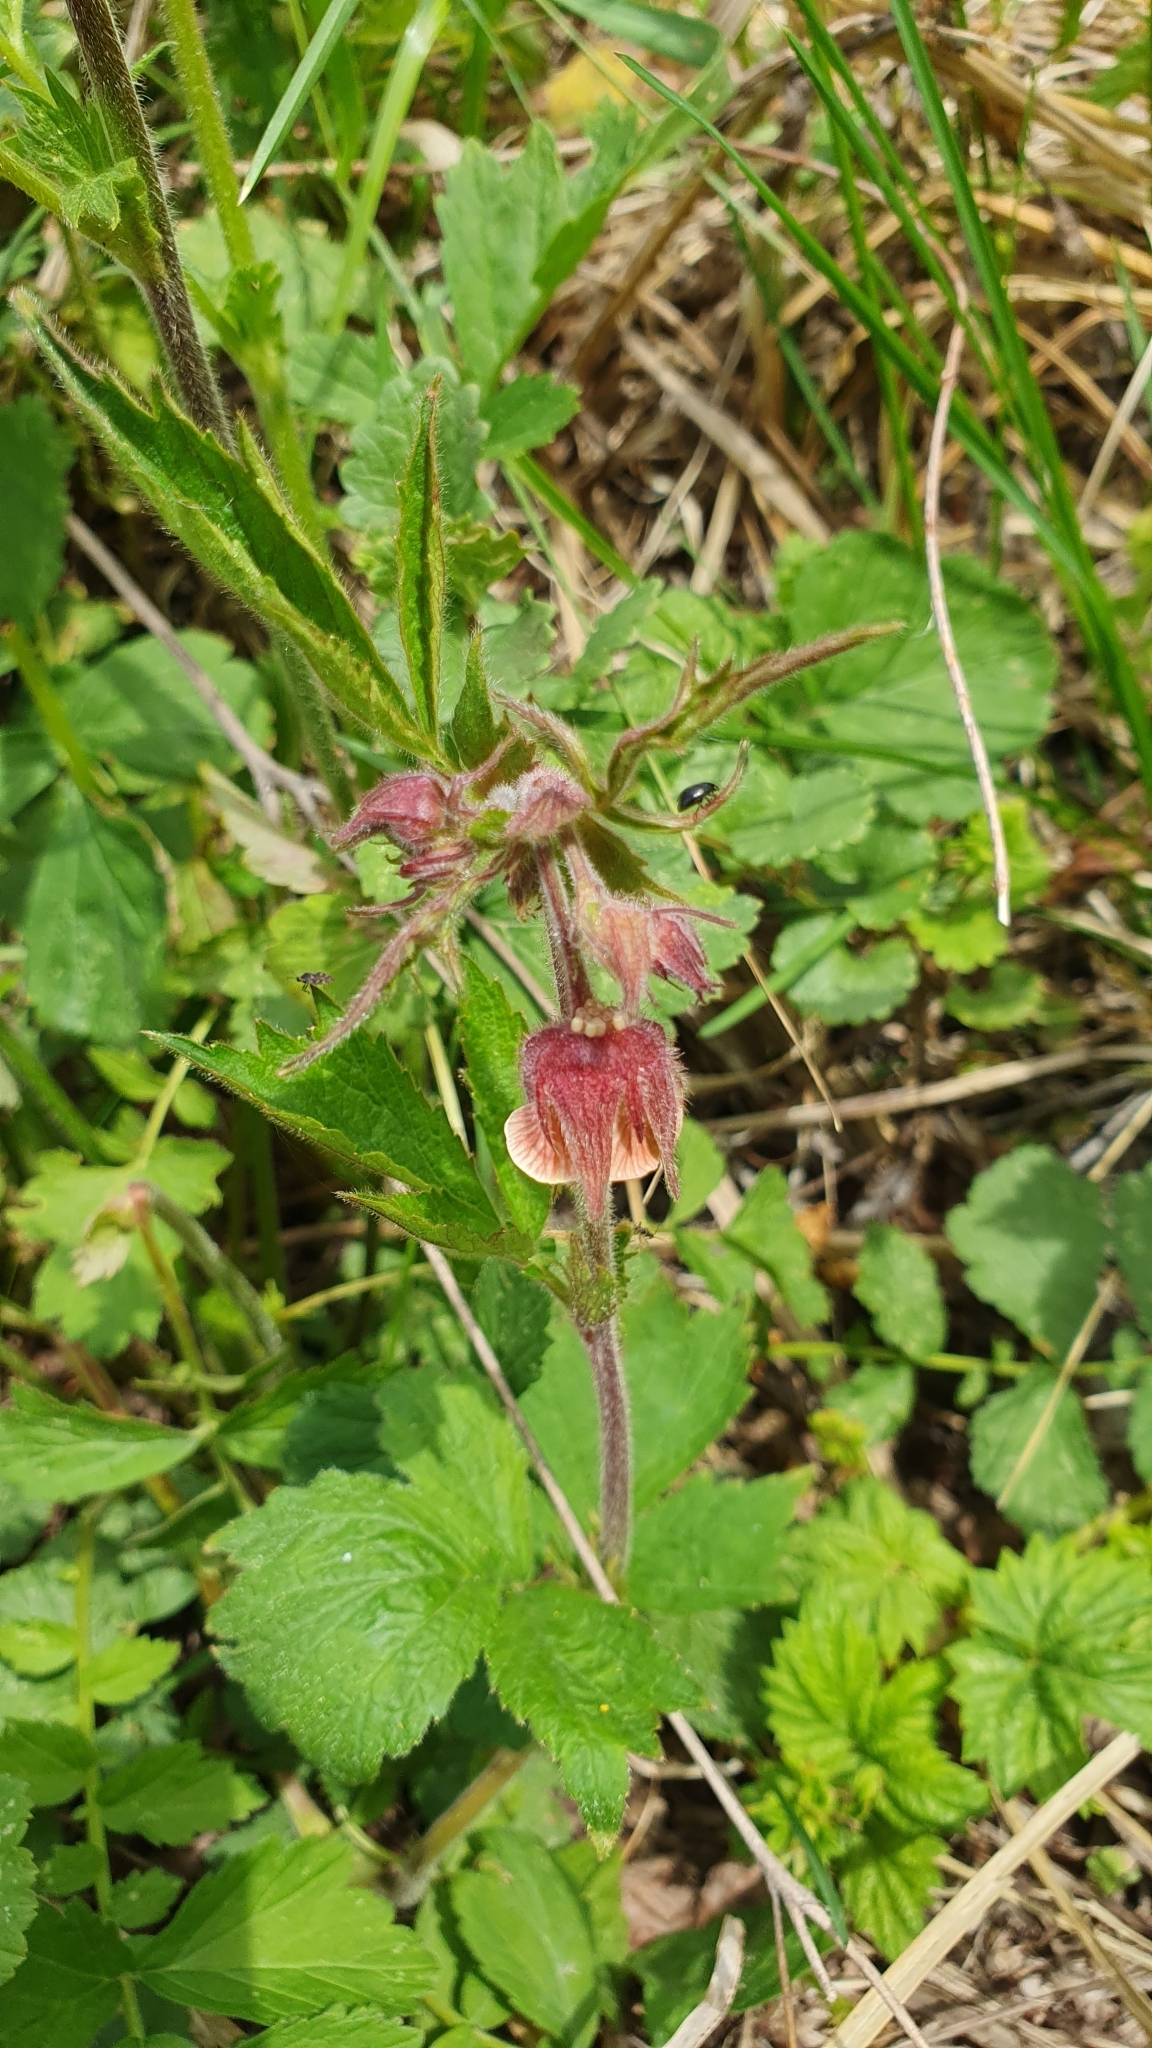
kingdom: Plantae
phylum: Tracheophyta
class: Magnoliopsida
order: Rosales
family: Rosaceae
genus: Geum
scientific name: Geum rivale
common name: Water avens
